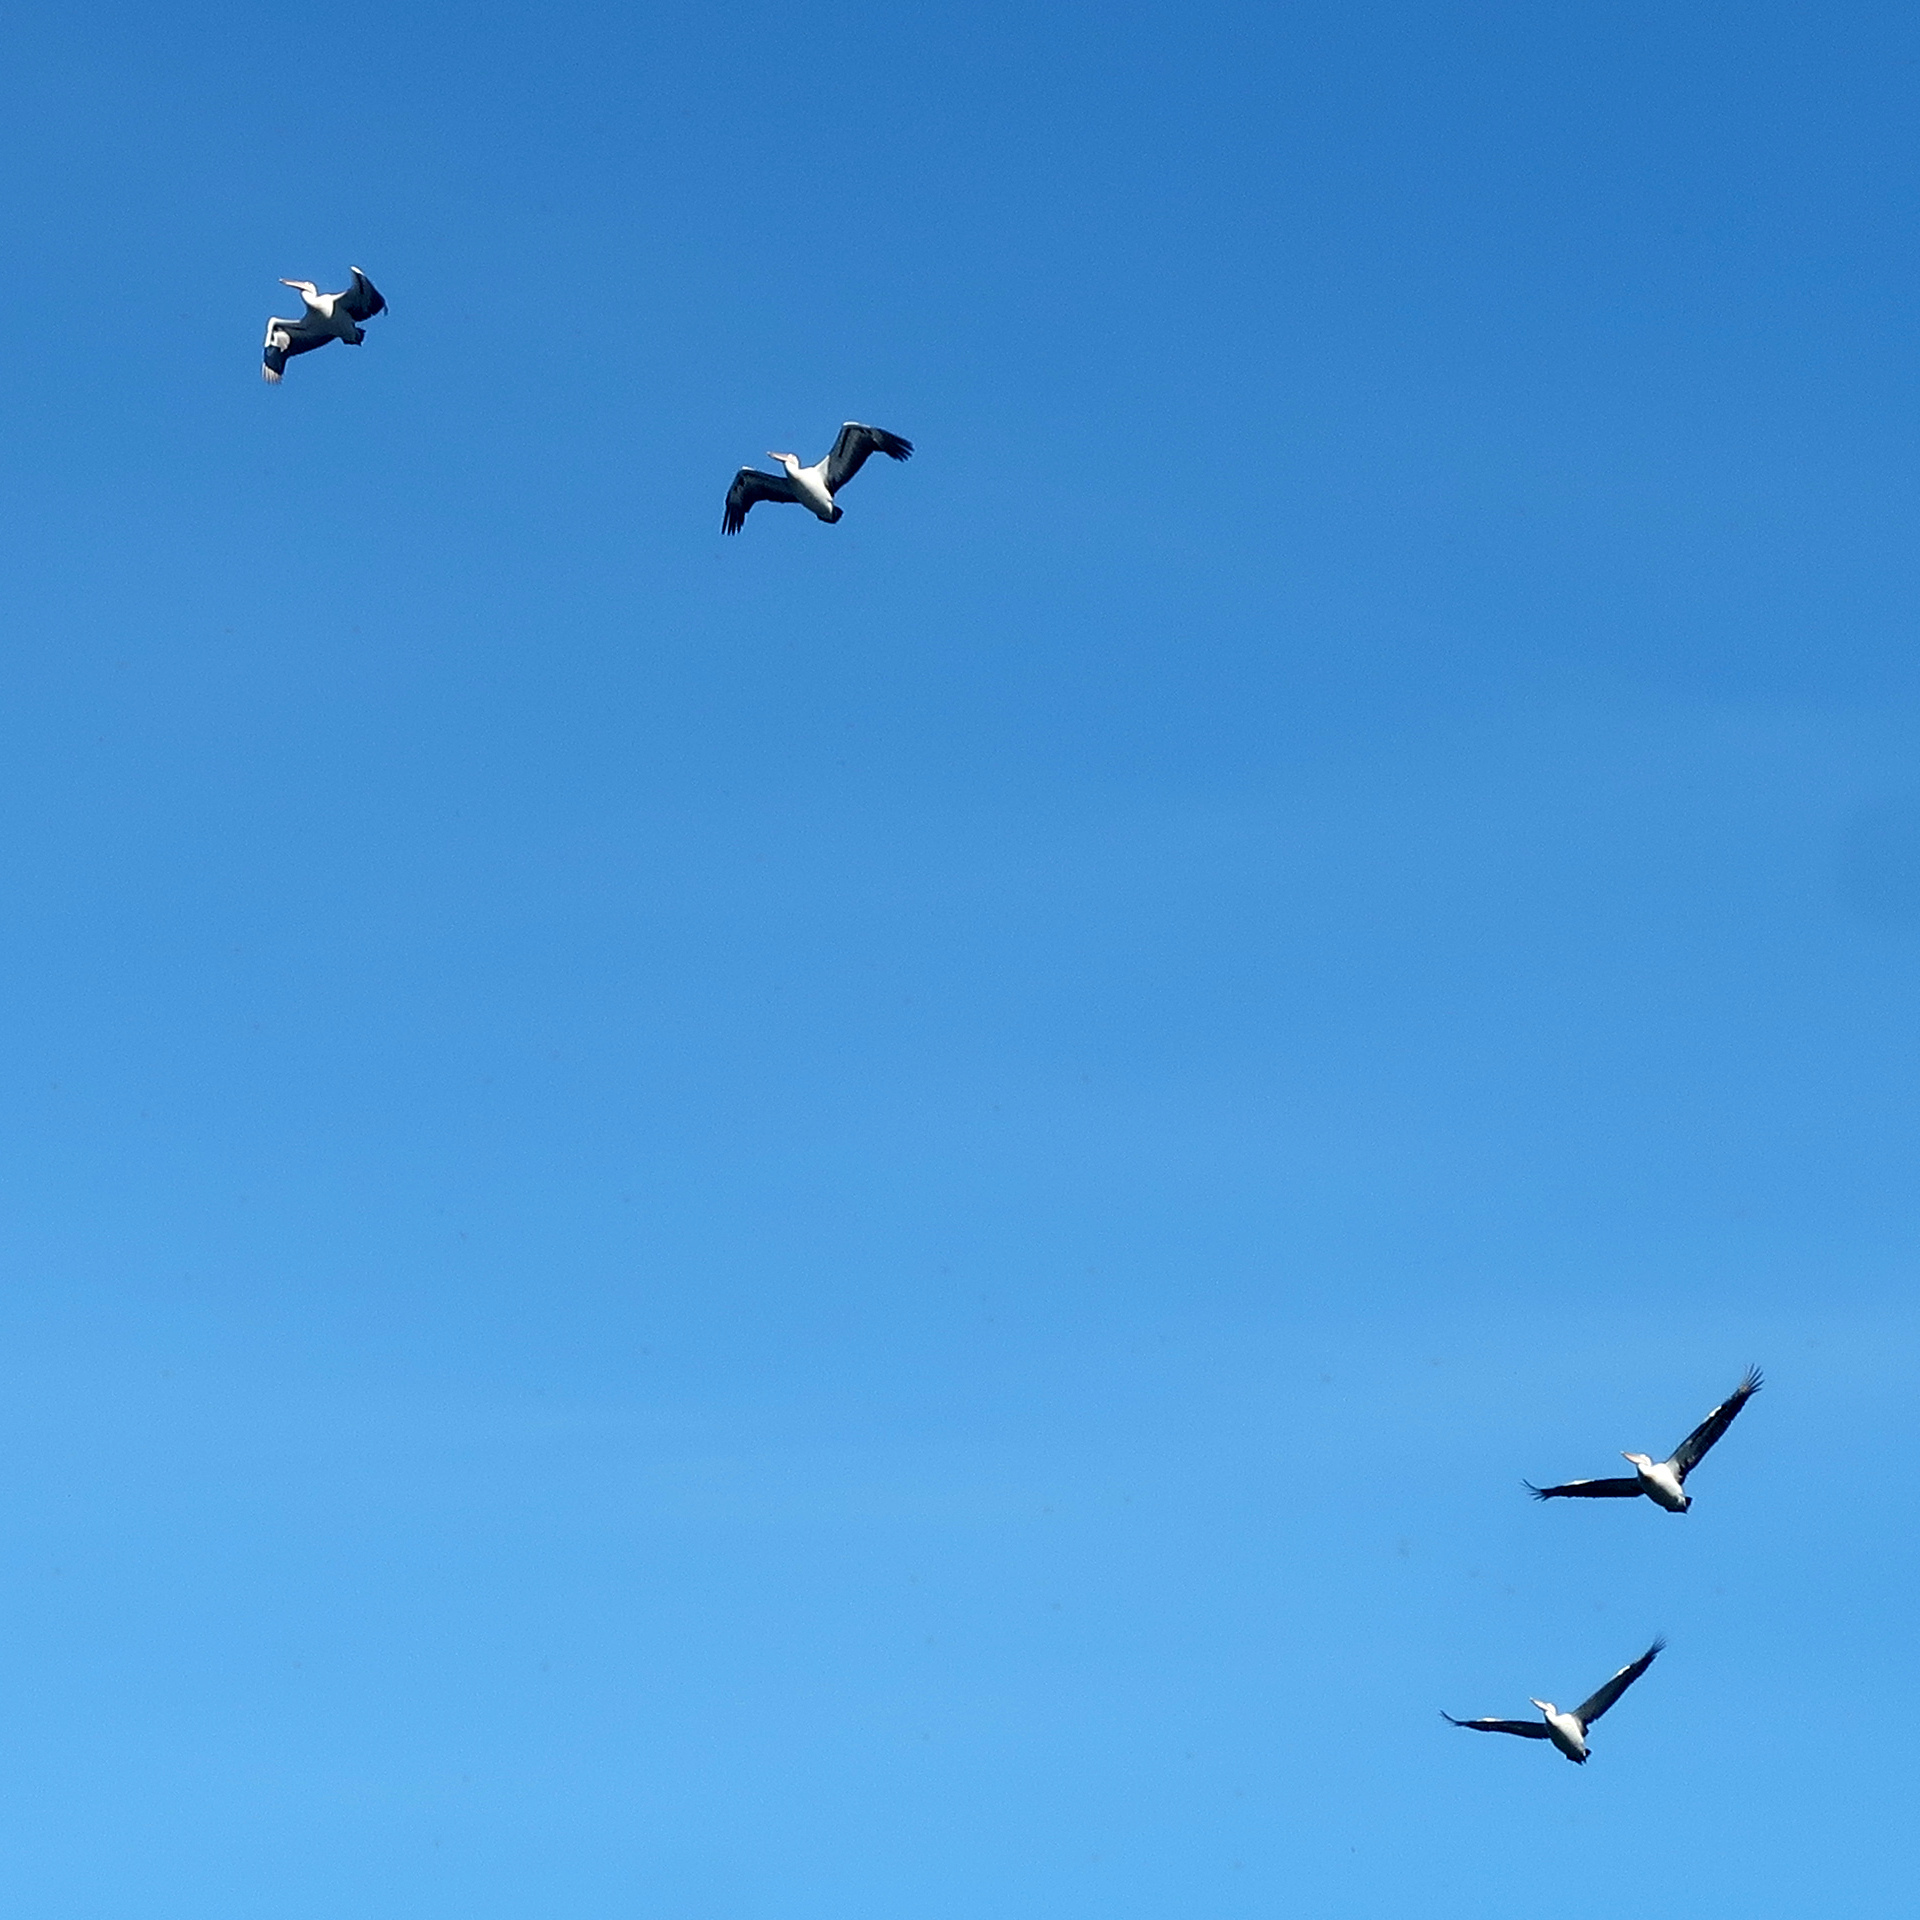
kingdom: Animalia
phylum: Chordata
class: Aves
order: Pelecaniformes
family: Pelecanidae
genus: Pelecanus
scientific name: Pelecanus conspicillatus
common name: Australian pelican
